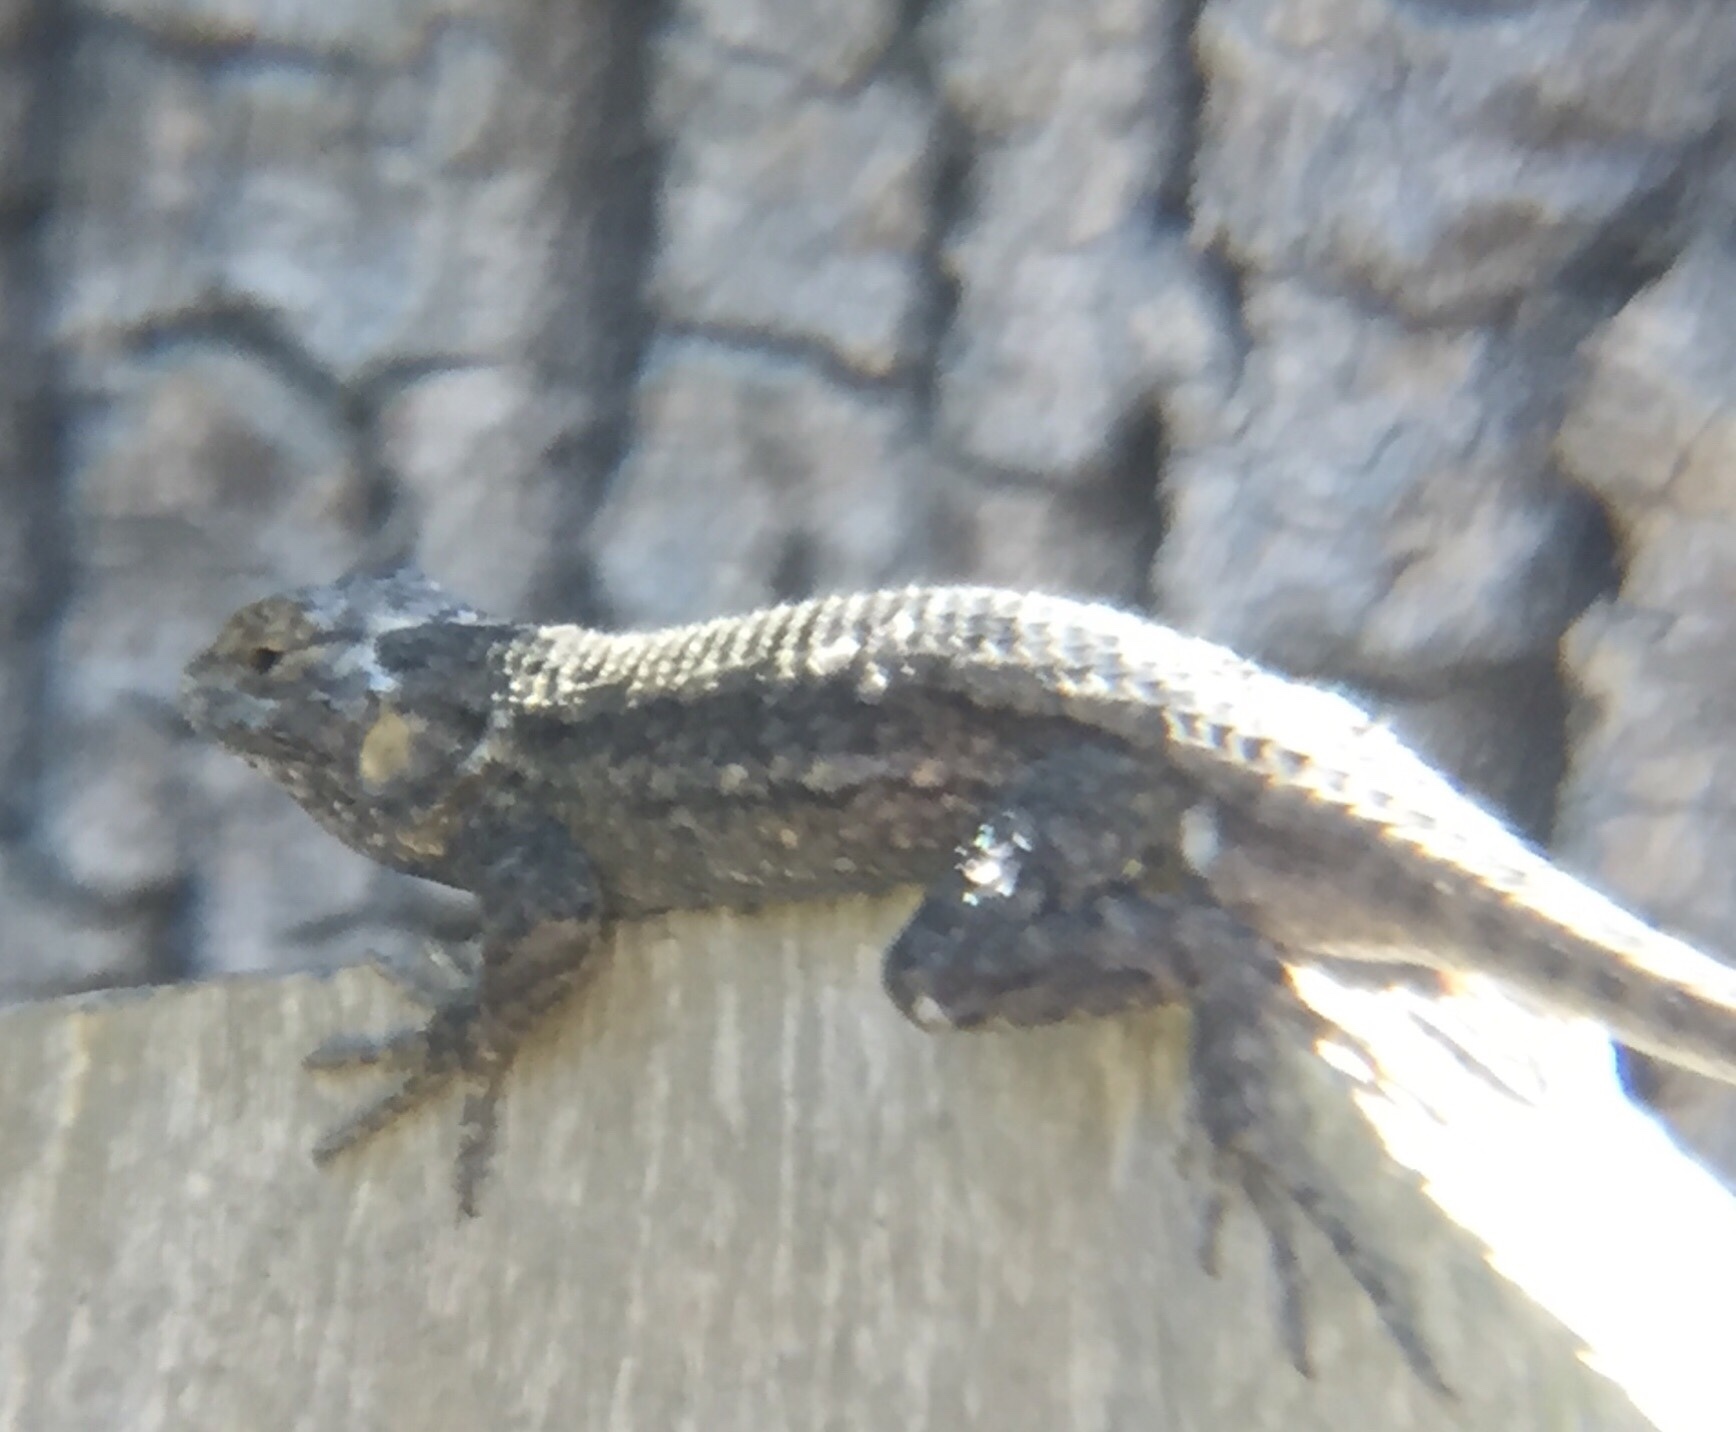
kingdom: Animalia
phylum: Chordata
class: Squamata
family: Phrynosomatidae
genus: Sceloporus
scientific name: Sceloporus occidentalis
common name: Western fence lizard
